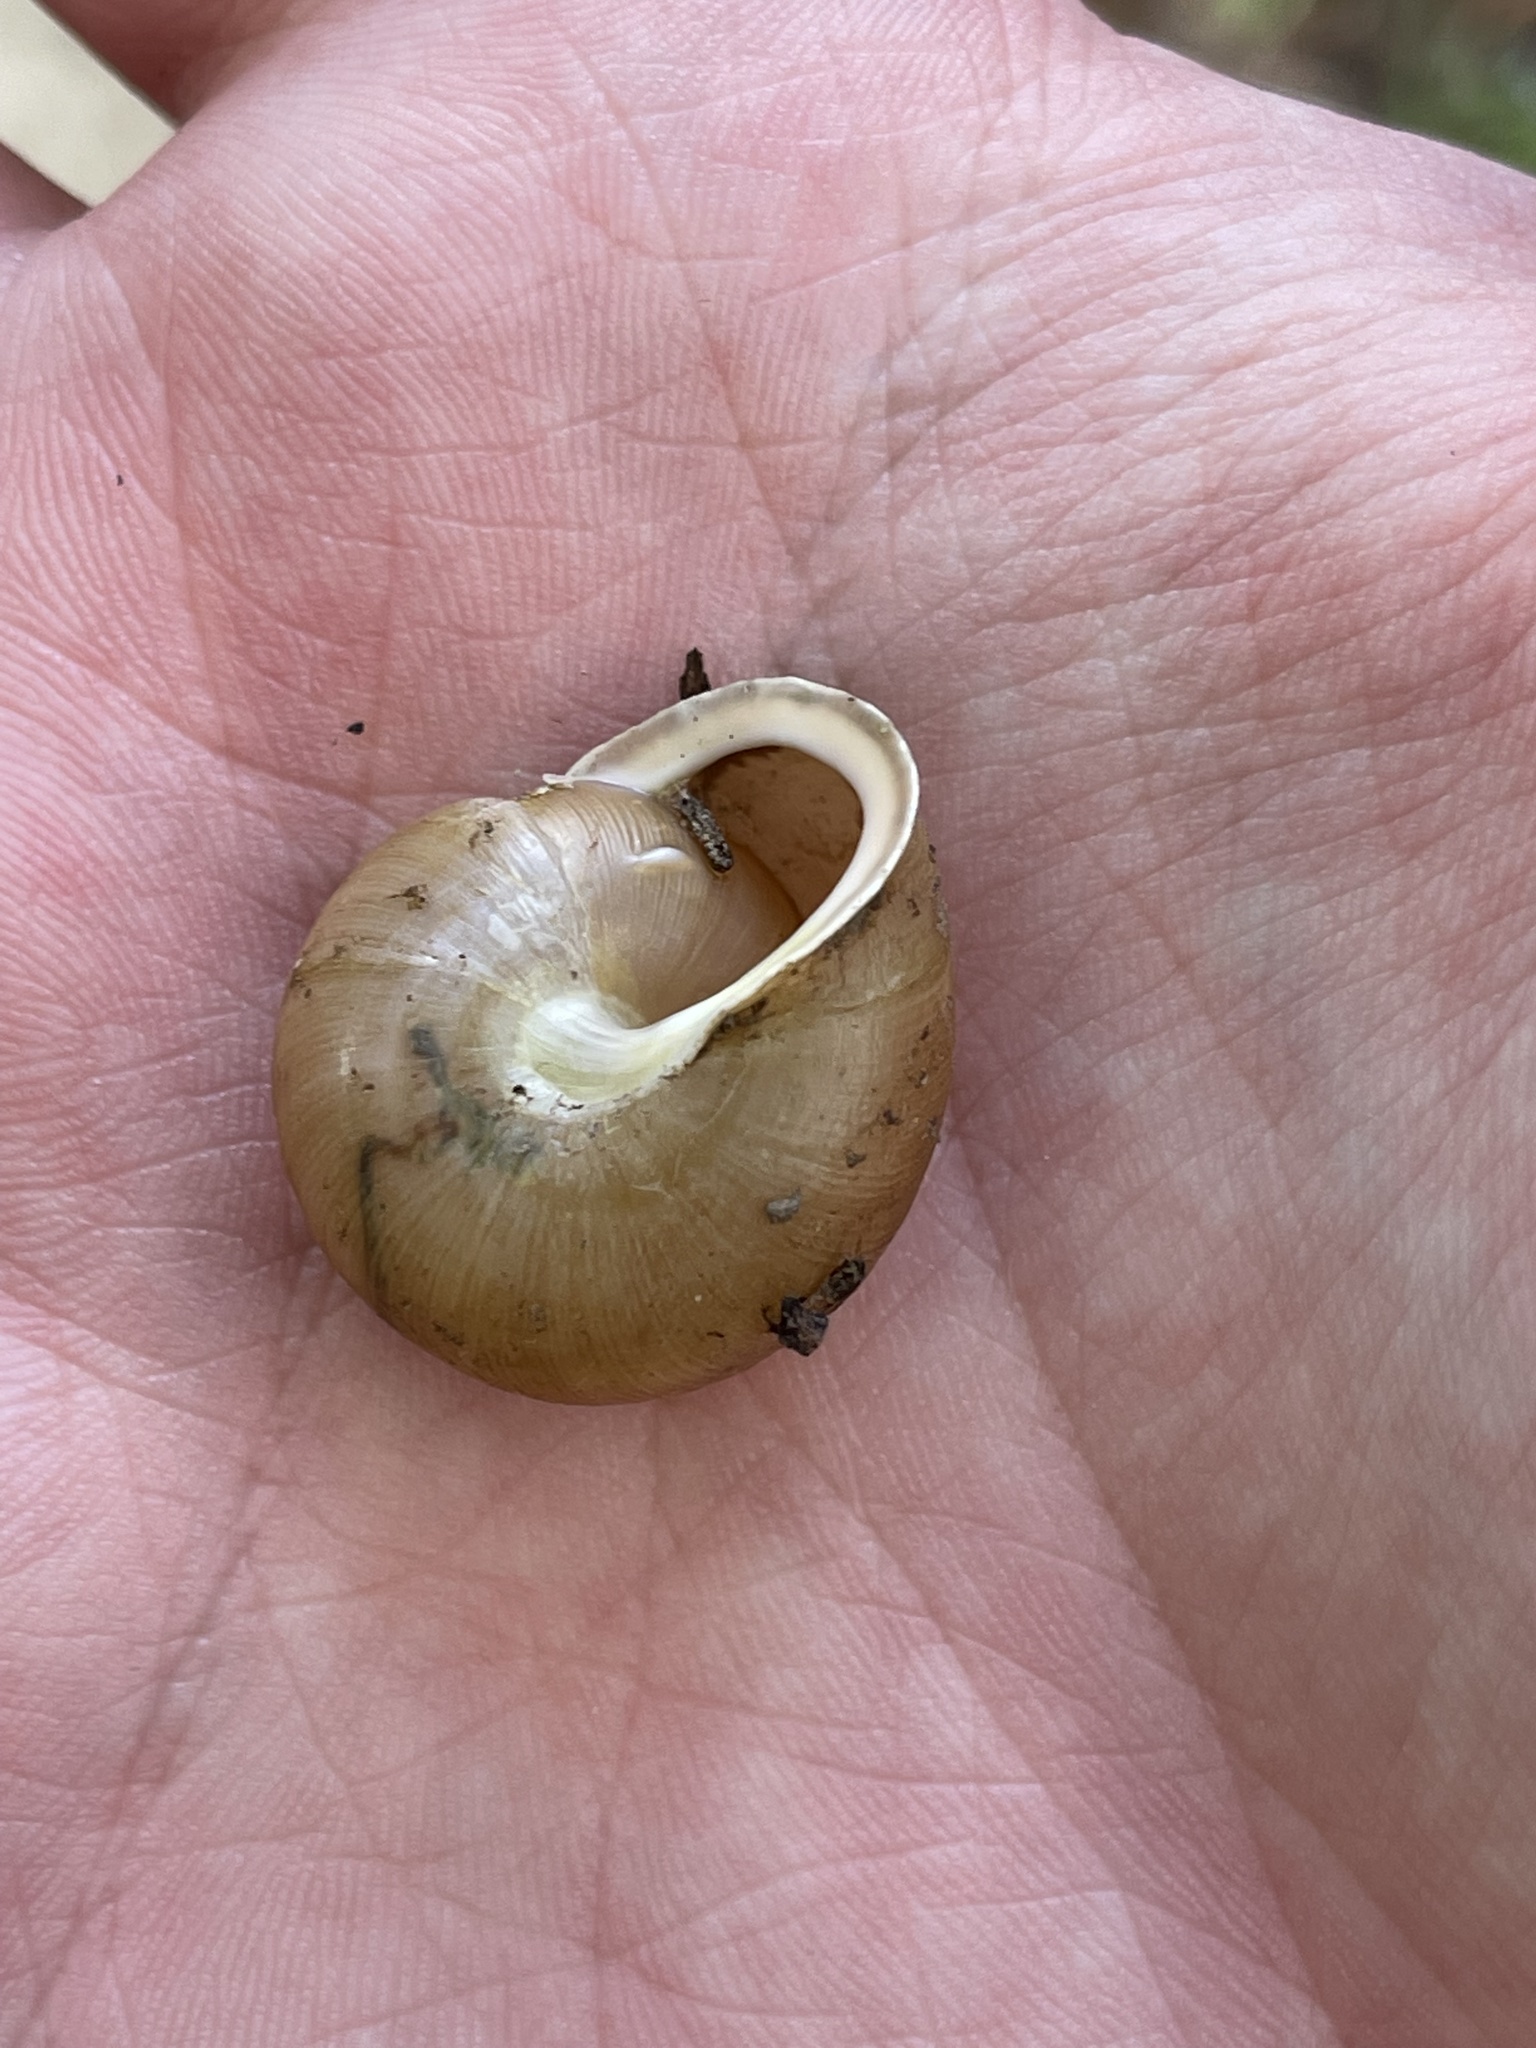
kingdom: Animalia
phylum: Mollusca
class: Gastropoda
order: Stylommatophora
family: Polygyridae
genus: Neohelix
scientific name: Neohelix albolabris
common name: Eastern whitelip
